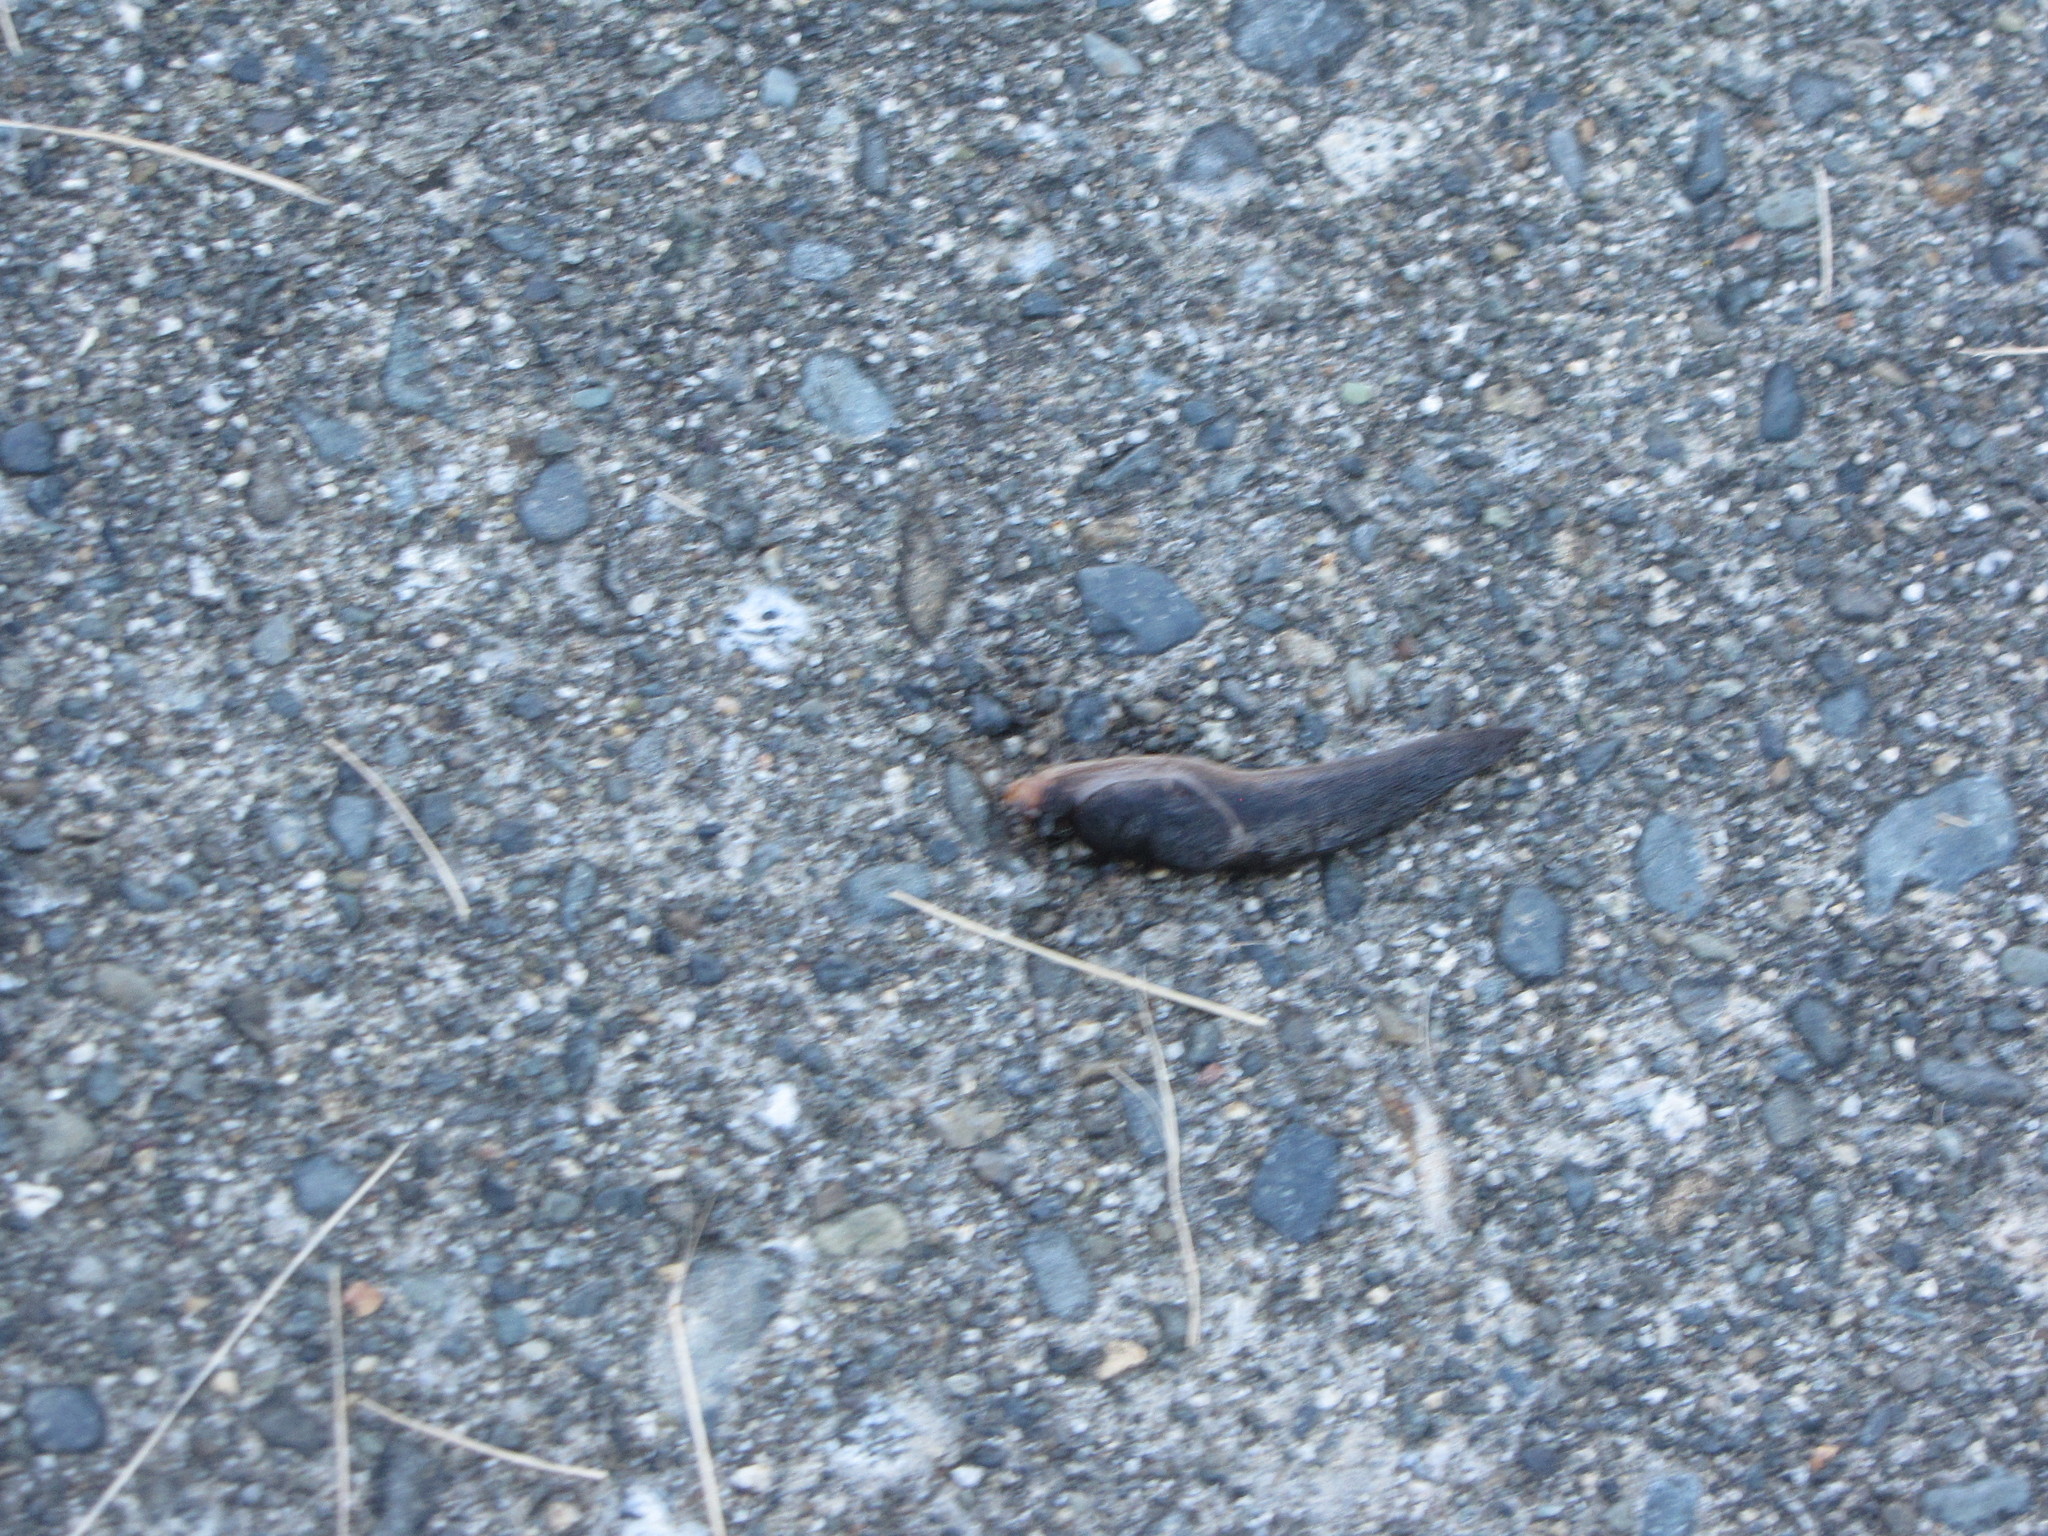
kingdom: Animalia
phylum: Mollusca
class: Gastropoda
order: Stylommatophora
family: Ariolimacidae
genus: Prophysaon
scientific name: Prophysaon foliolatum
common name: Yellow-bordered taildropper
